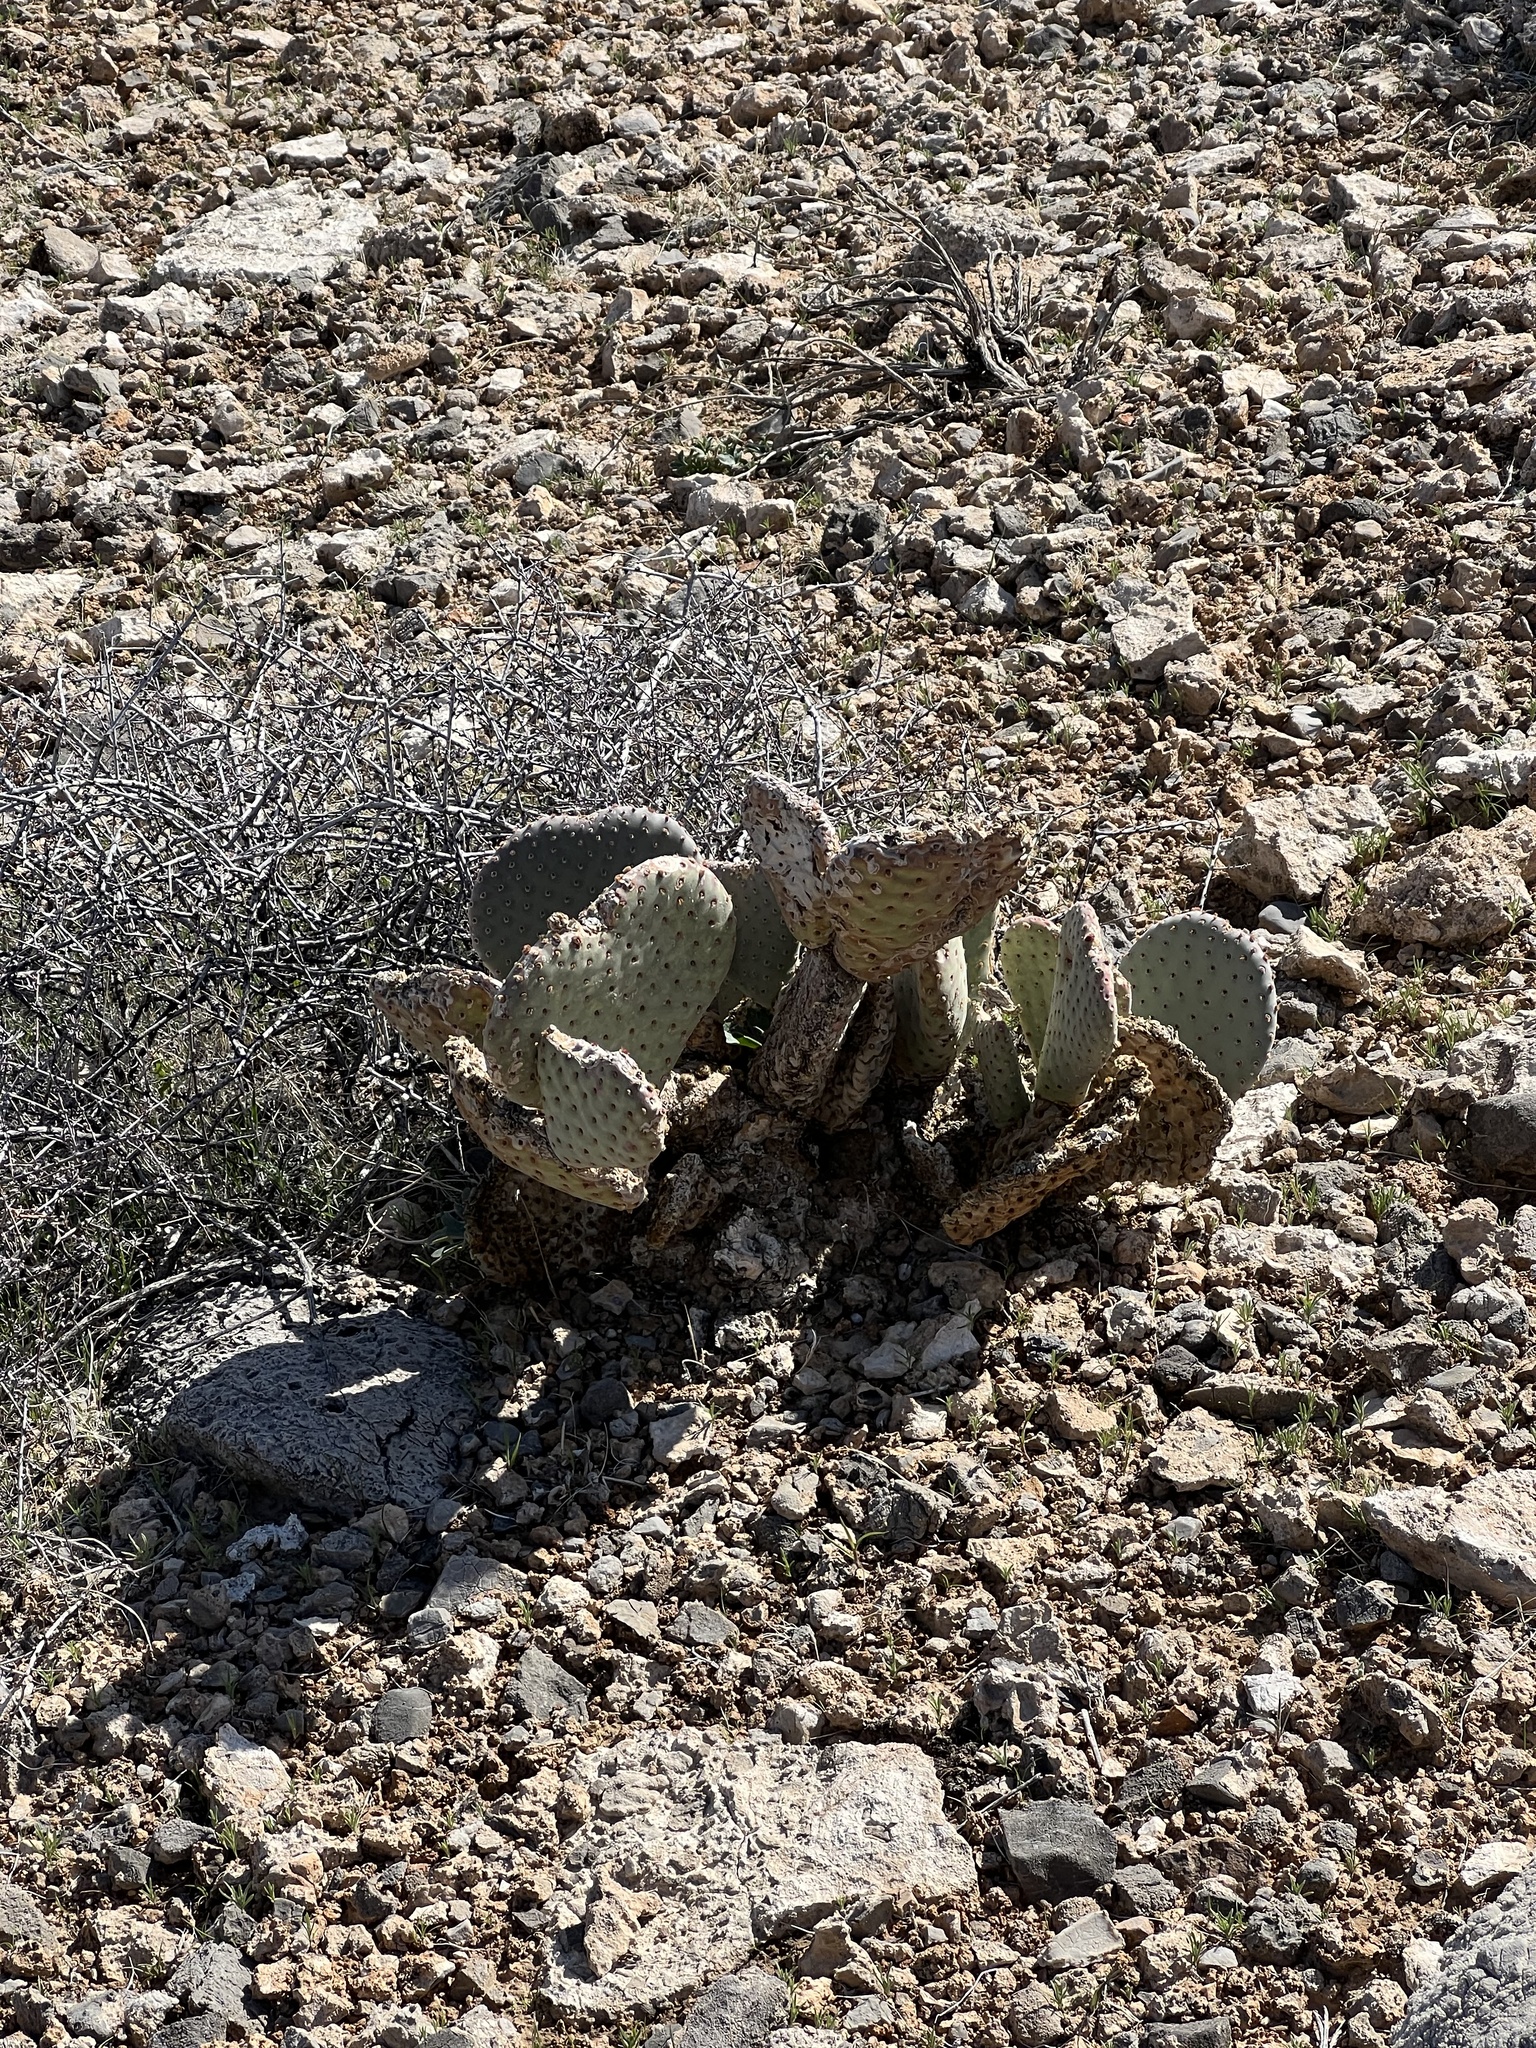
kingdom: Plantae
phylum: Tracheophyta
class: Magnoliopsida
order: Caryophyllales
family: Cactaceae
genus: Opuntia
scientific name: Opuntia basilaris
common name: Beavertail prickly-pear
